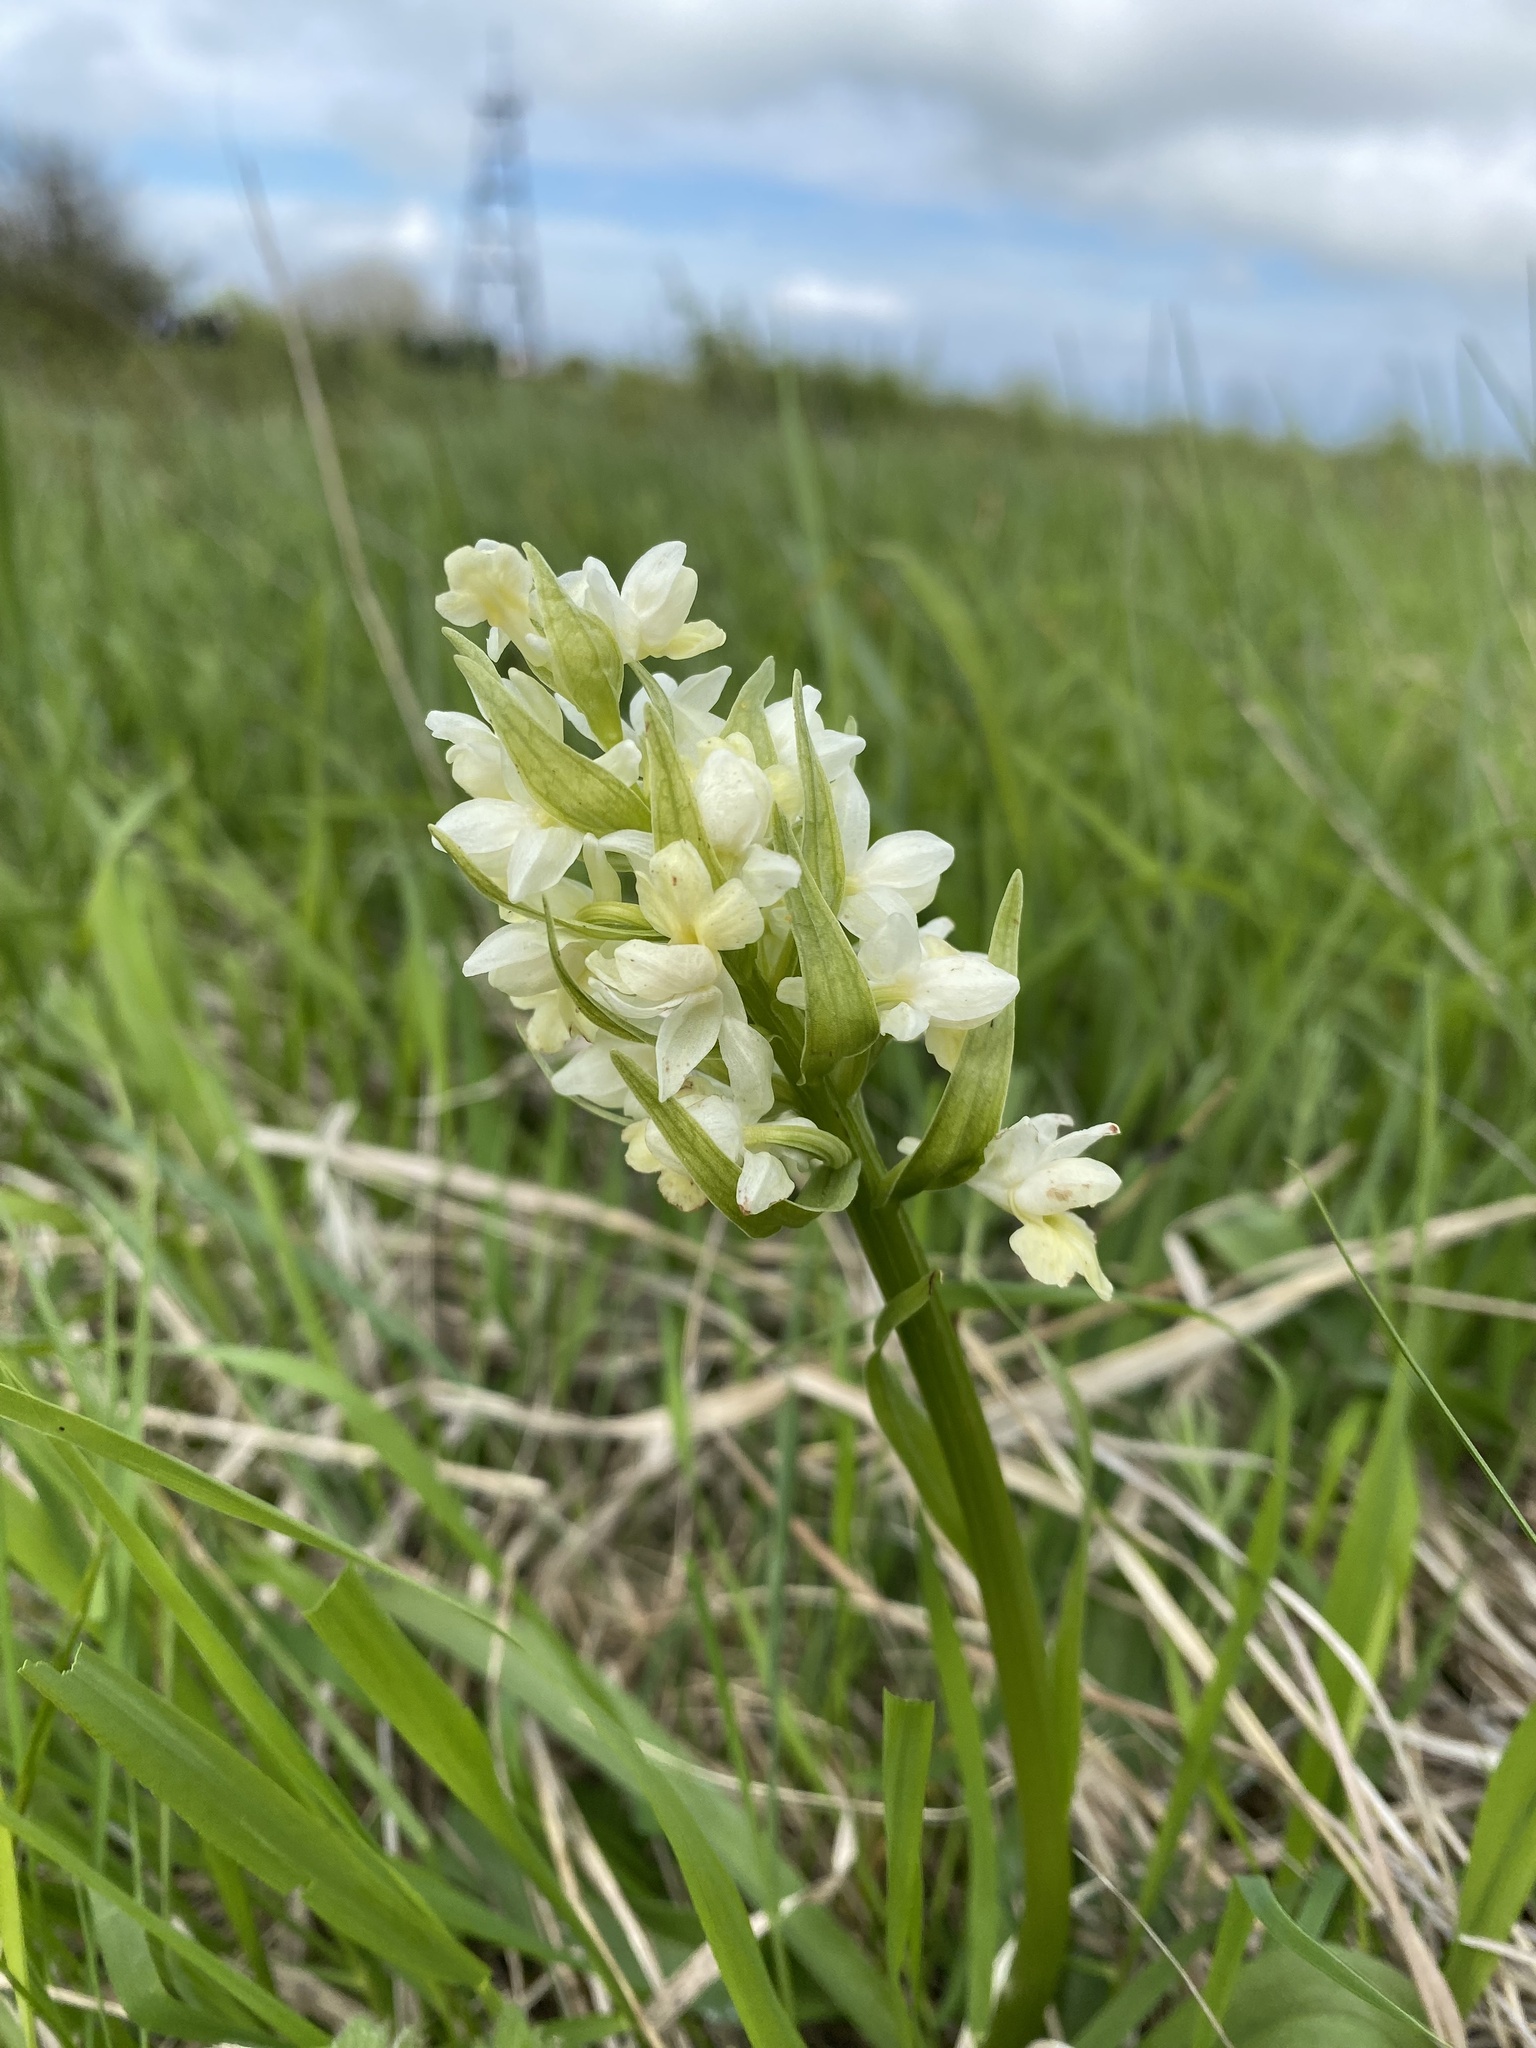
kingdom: Plantae
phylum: Tracheophyta
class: Liliopsida
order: Asparagales
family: Orchidaceae
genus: Dactylorhiza
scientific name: Dactylorhiza romana
